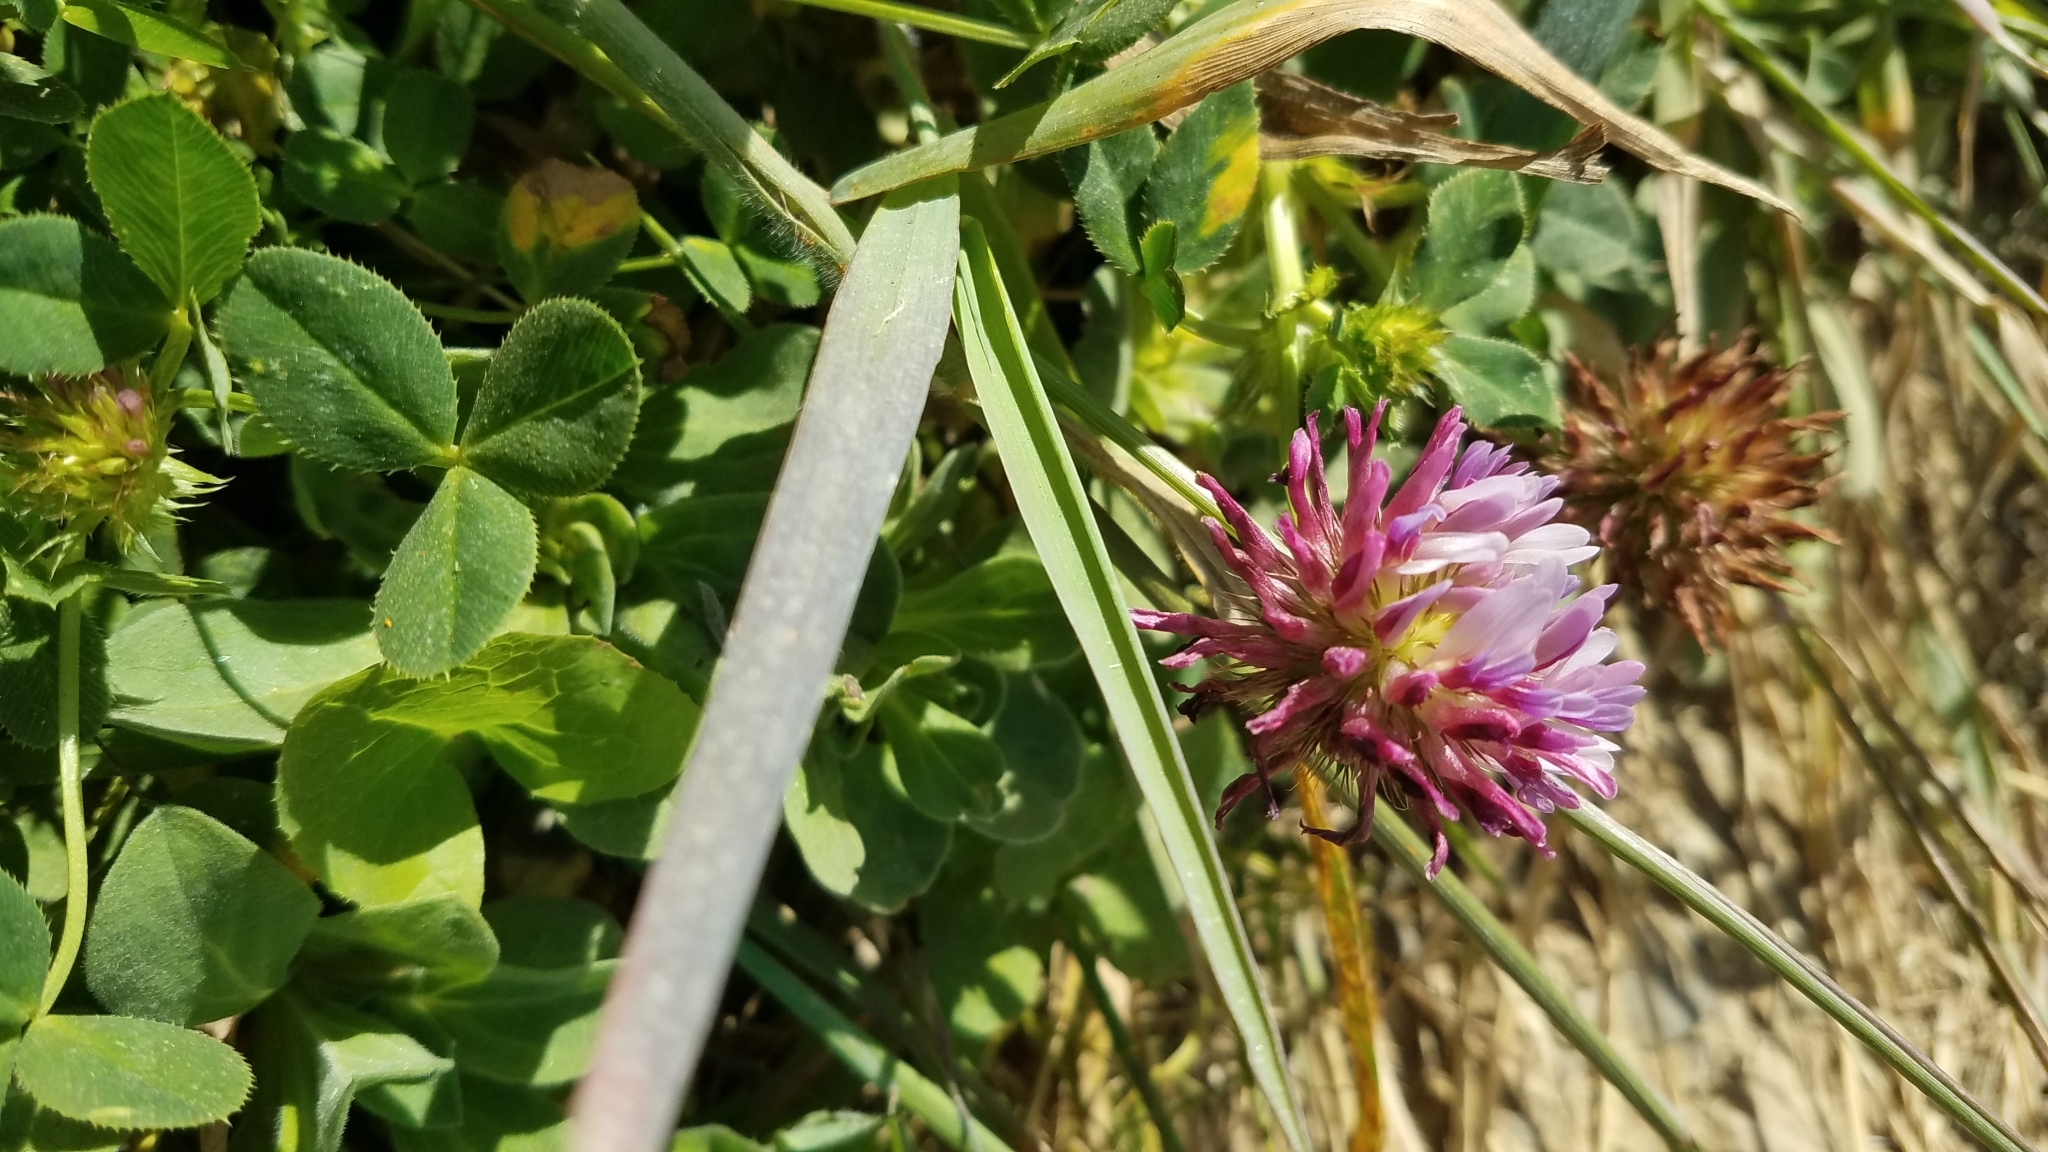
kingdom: Plantae
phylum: Tracheophyta
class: Magnoliopsida
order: Fabales
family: Fabaceae
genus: Trifolium
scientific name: Trifolium wormskioldii
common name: Springbank clover
